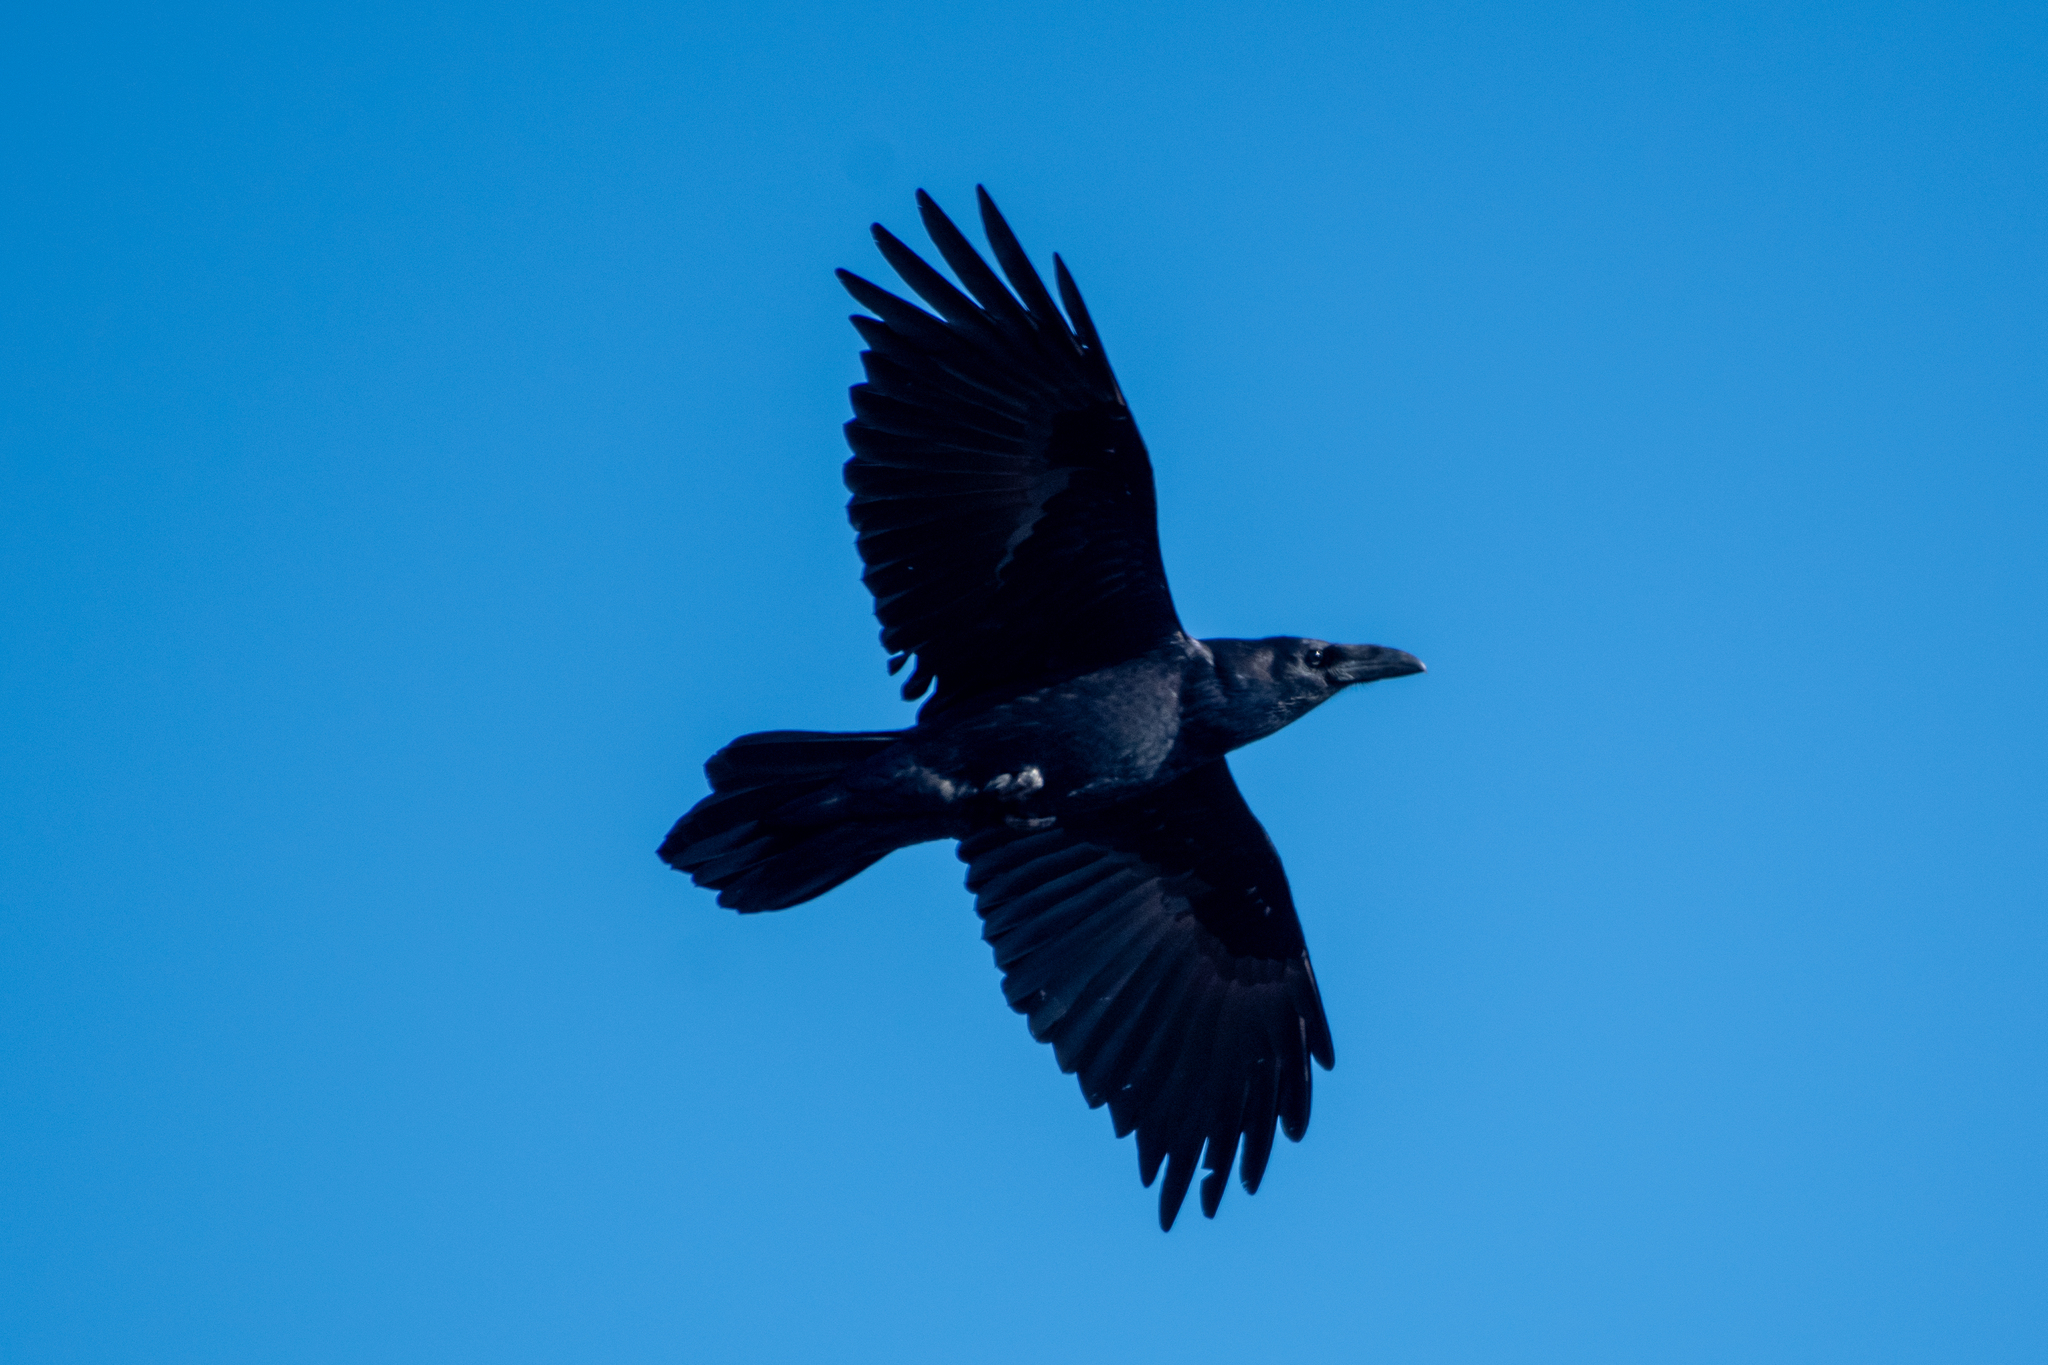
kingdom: Animalia
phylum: Chordata
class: Aves
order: Passeriformes
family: Corvidae
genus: Corvus
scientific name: Corvus corax
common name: Common raven
